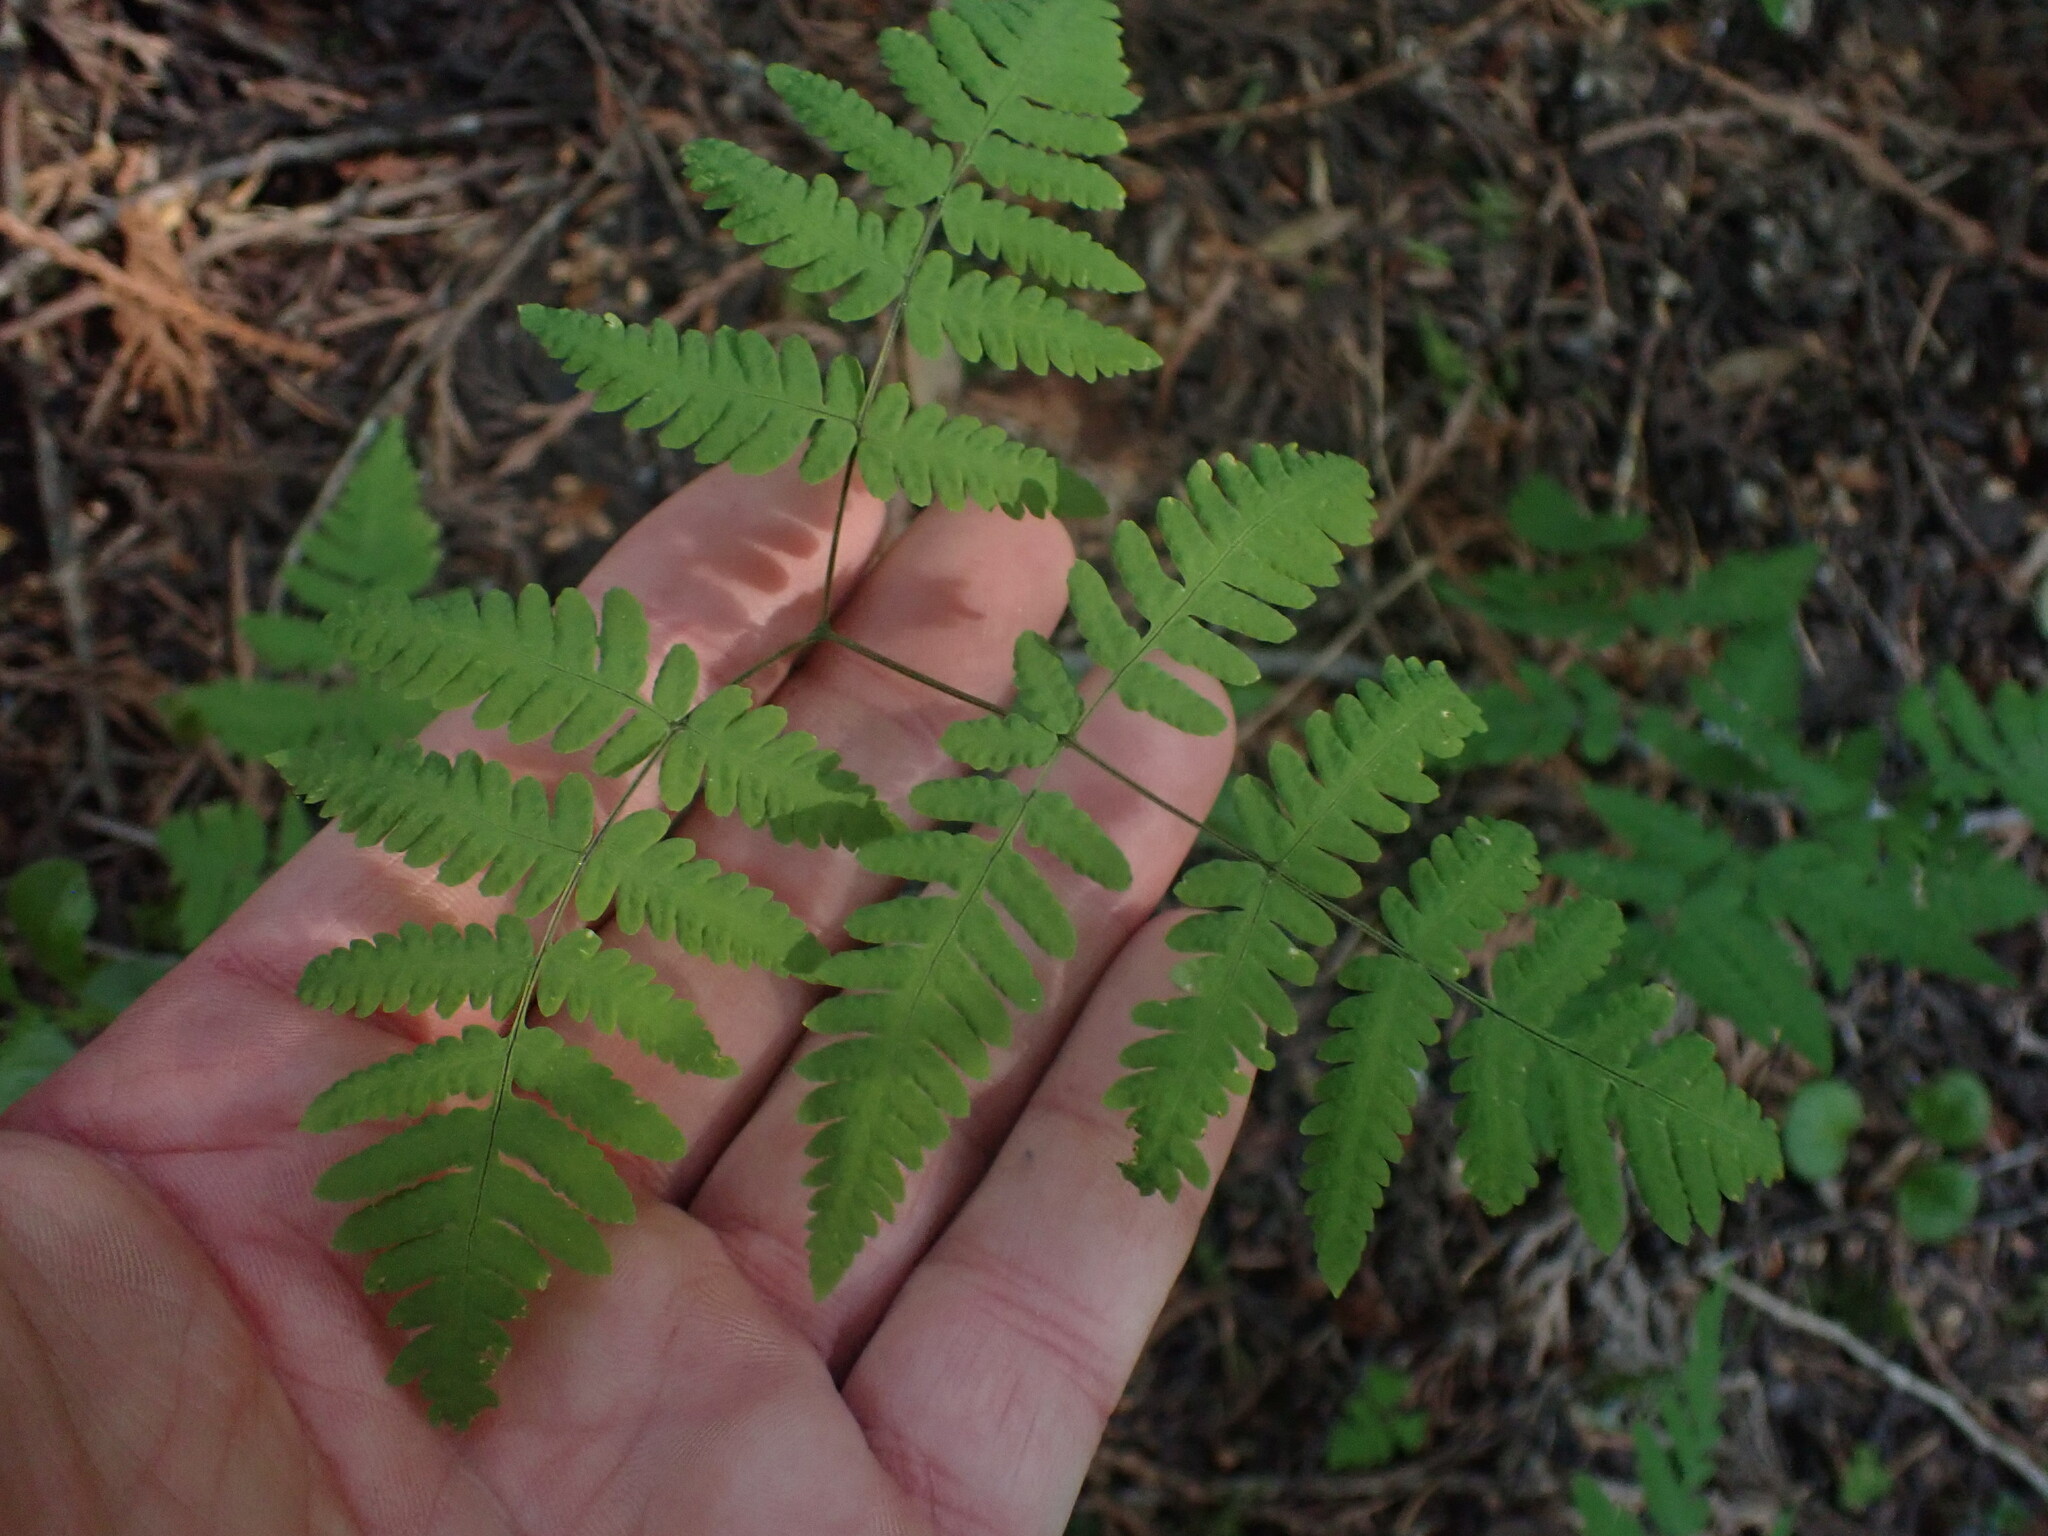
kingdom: Plantae
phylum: Tracheophyta
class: Polypodiopsida
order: Polypodiales
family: Cystopteridaceae
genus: Gymnocarpium
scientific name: Gymnocarpium disjunctum
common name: Western oak fern
